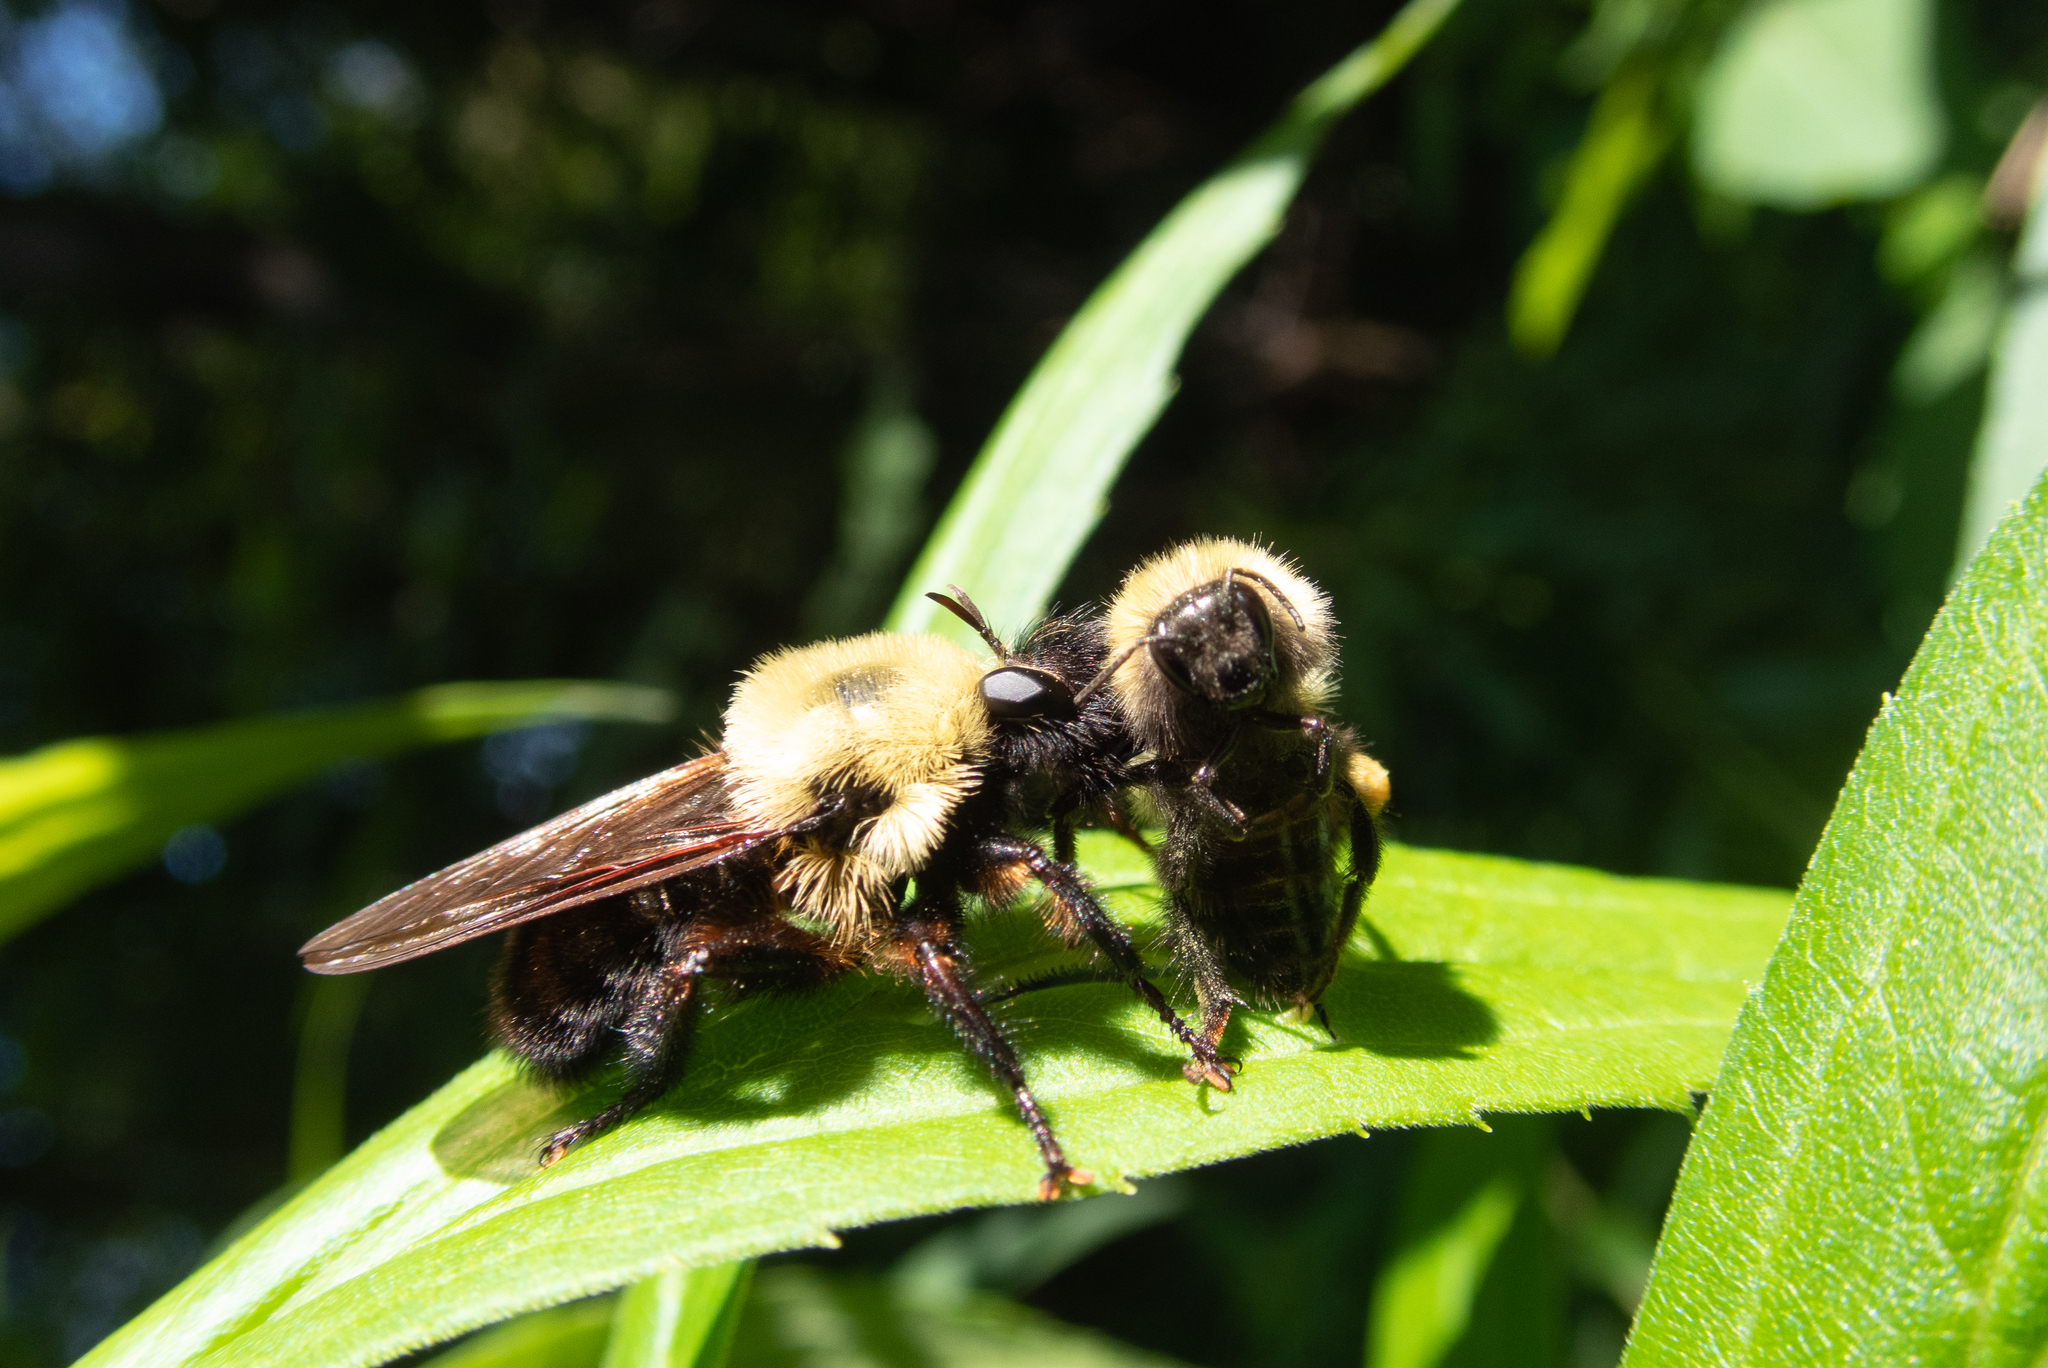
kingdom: Animalia
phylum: Arthropoda
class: Insecta
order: Diptera
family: Asilidae
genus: Laphria
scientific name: Laphria thoracica
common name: Bumble bee mimic robber fly
